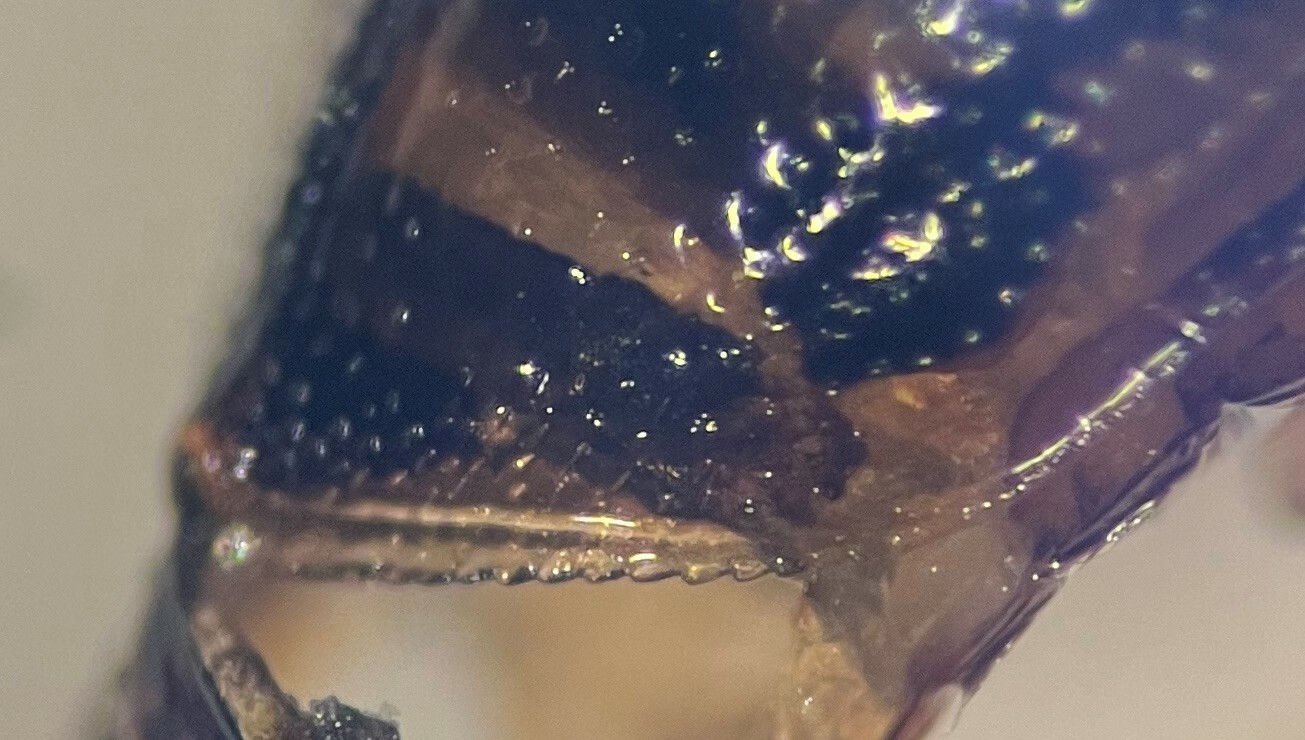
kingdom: Animalia
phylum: Arthropoda
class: Insecta
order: Coleoptera
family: Haliplidae
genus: Haliplus
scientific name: Haliplus tortilipennis
